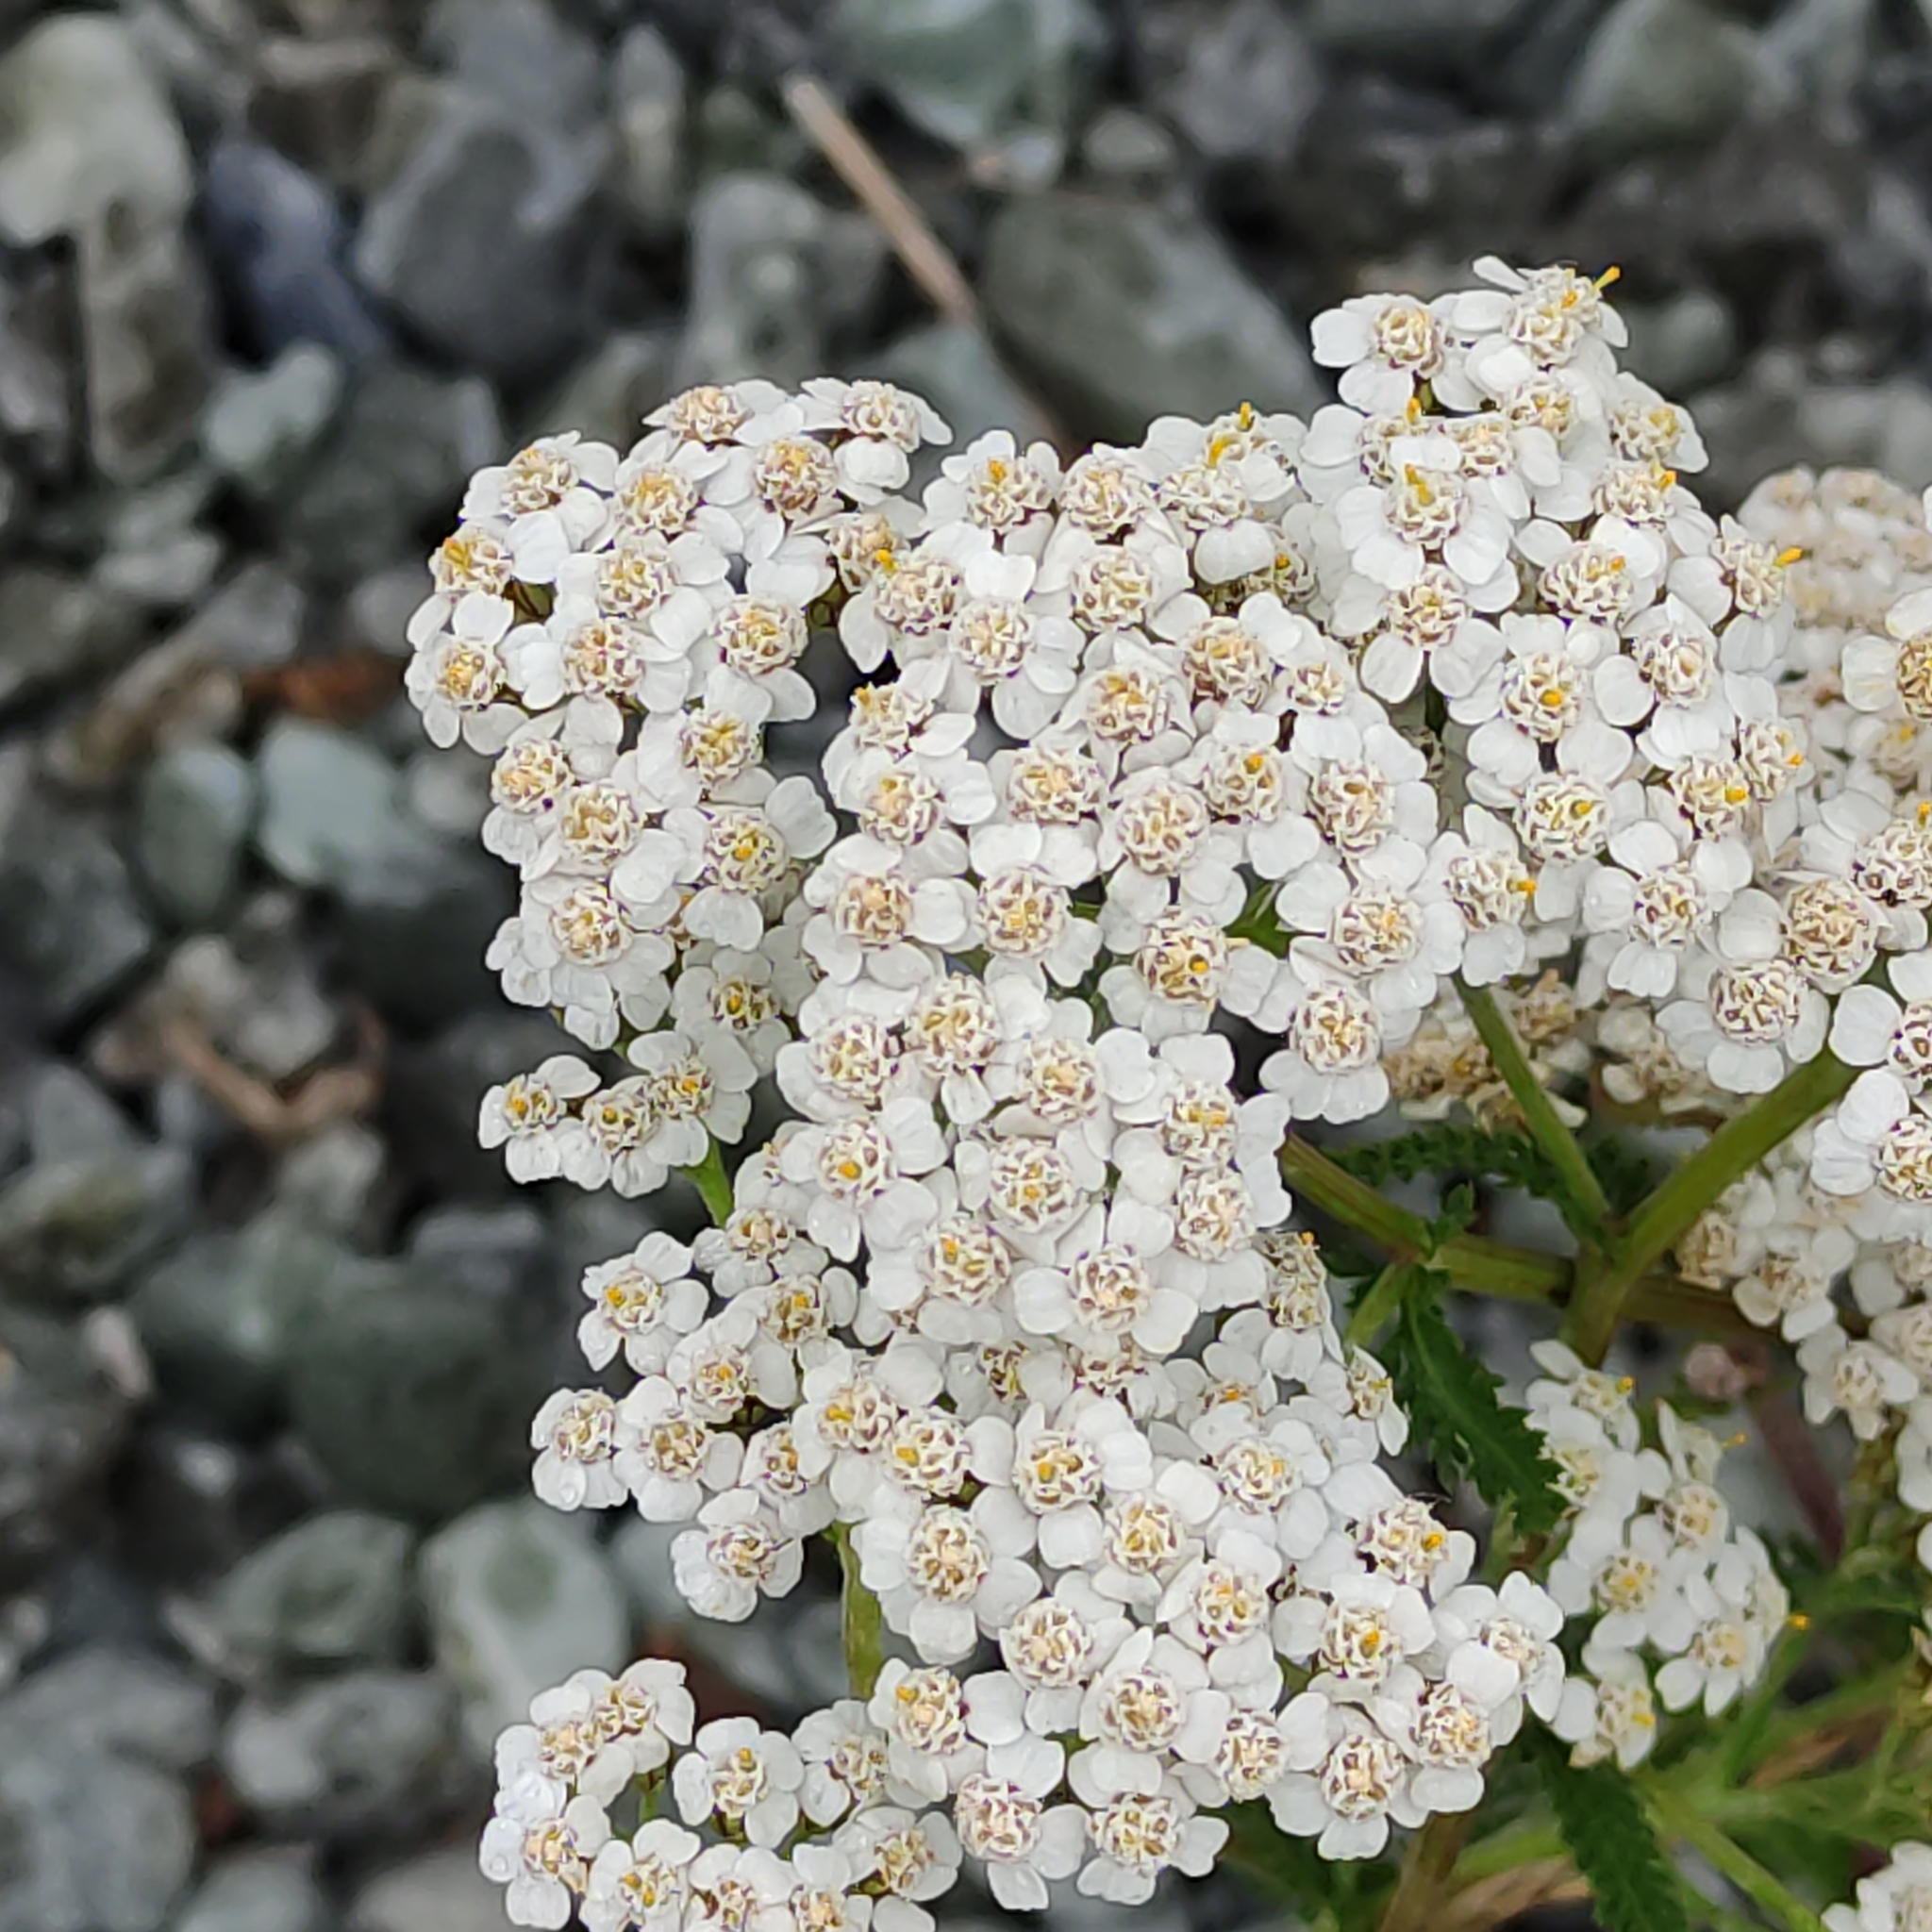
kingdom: Plantae
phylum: Tracheophyta
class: Magnoliopsida
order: Asterales
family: Asteraceae
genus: Achillea
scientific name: Achillea millefolium
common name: Yarrow
